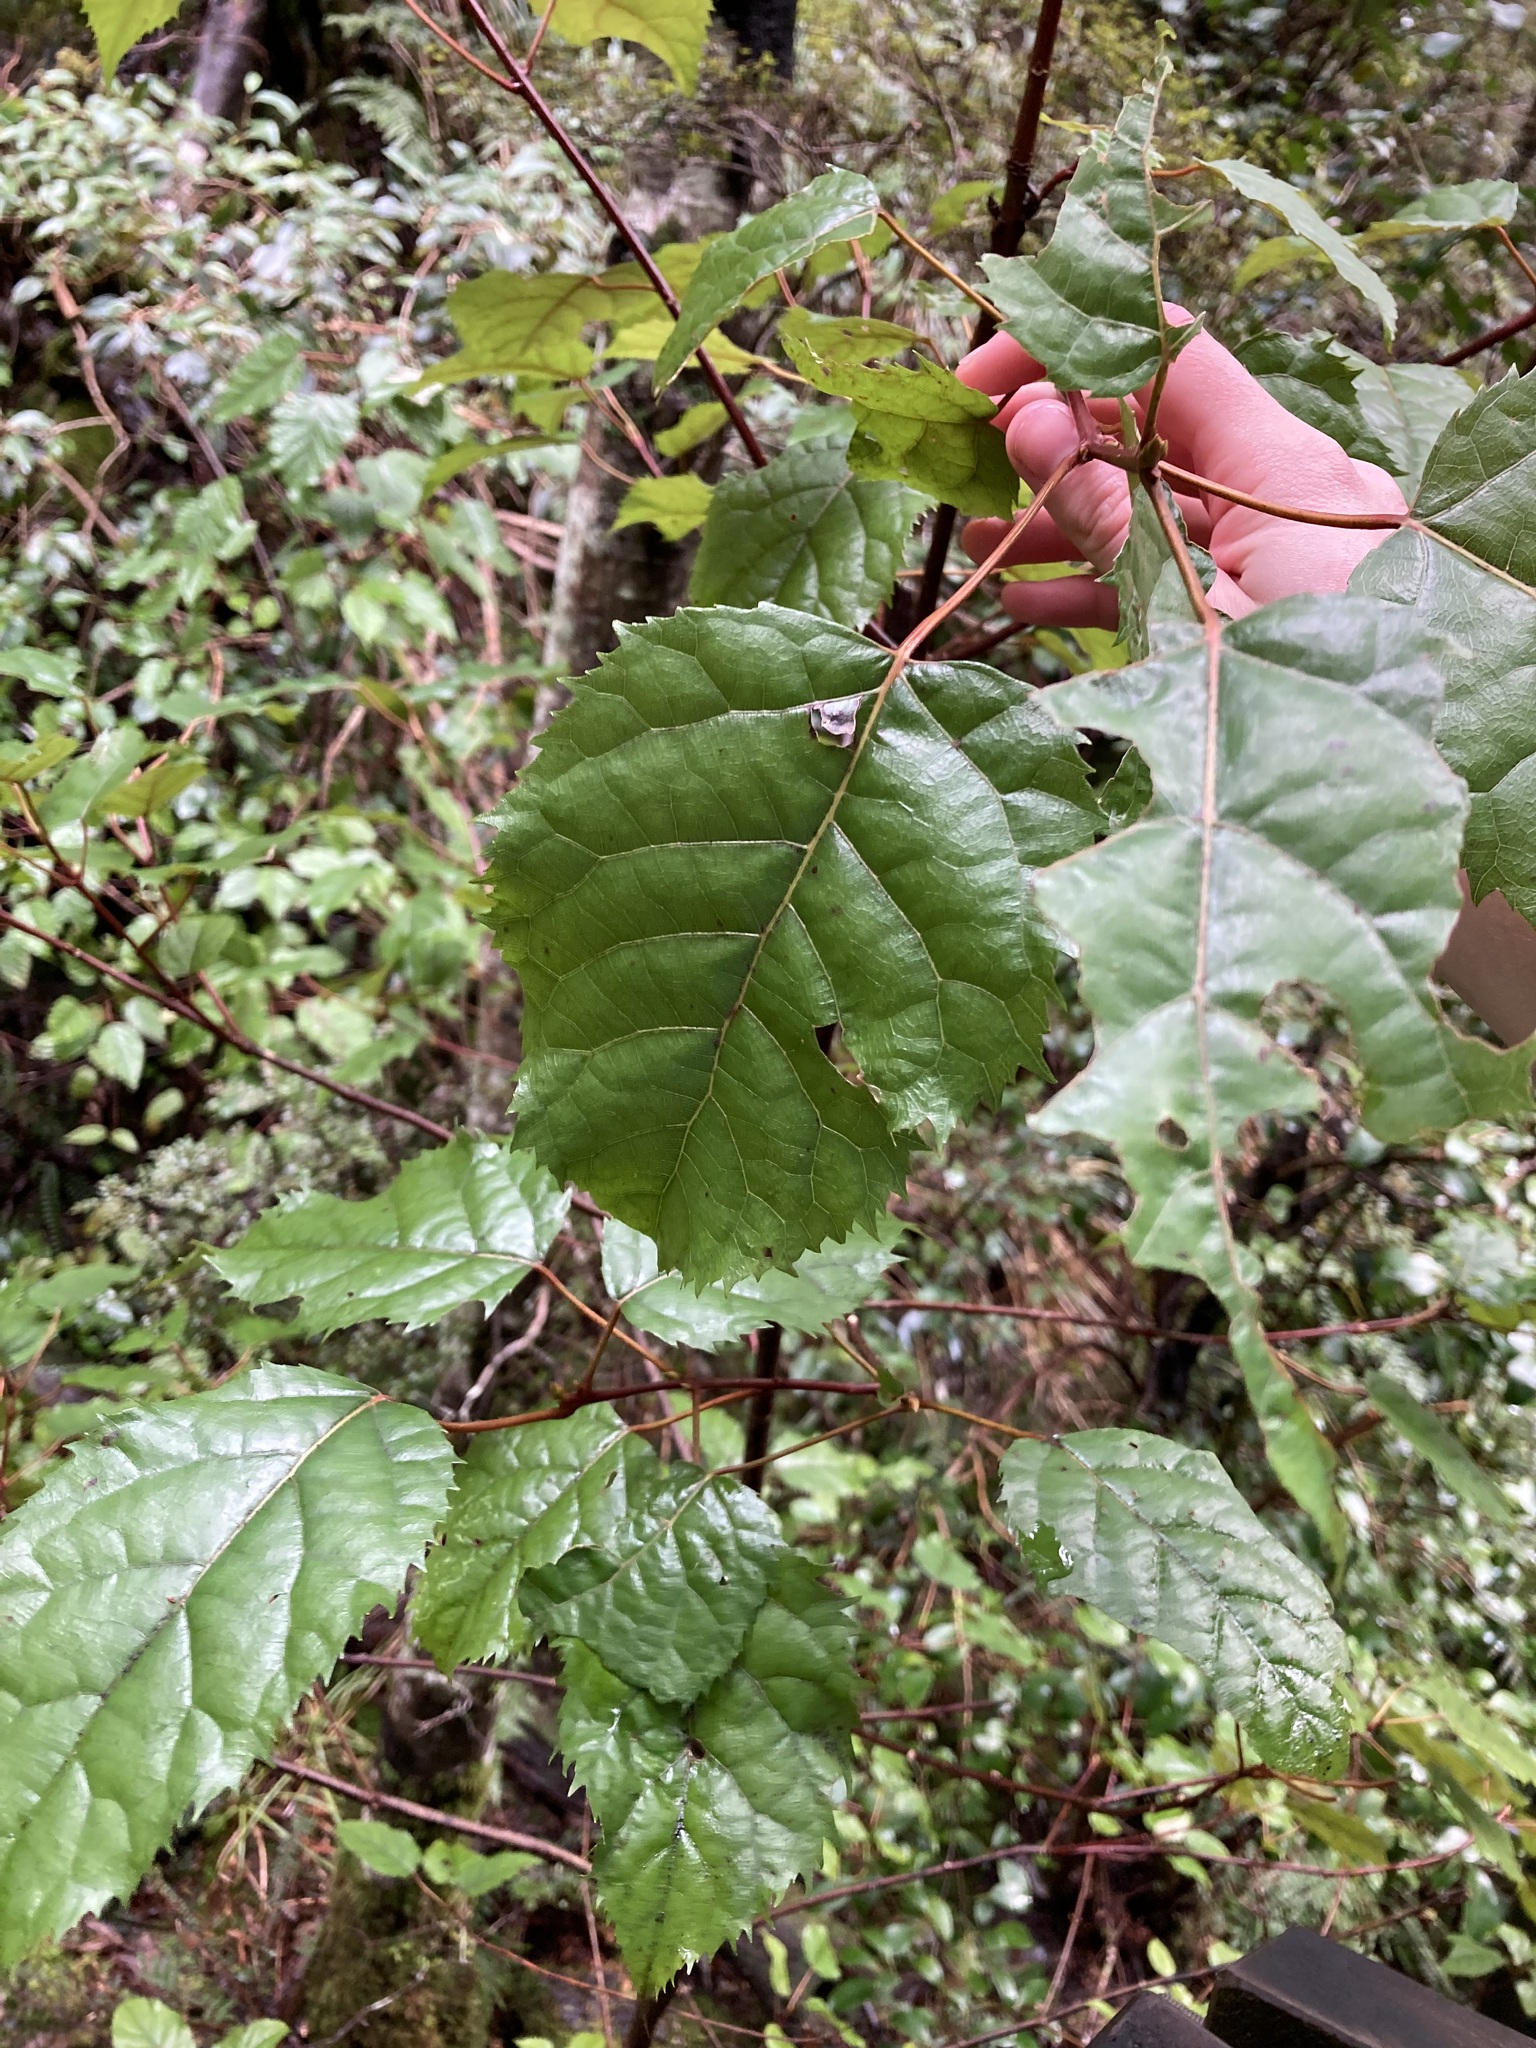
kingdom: Plantae
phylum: Tracheophyta
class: Magnoliopsida
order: Oxalidales
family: Elaeocarpaceae
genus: Aristotelia
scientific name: Aristotelia serrata
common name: New zealand wineberry
